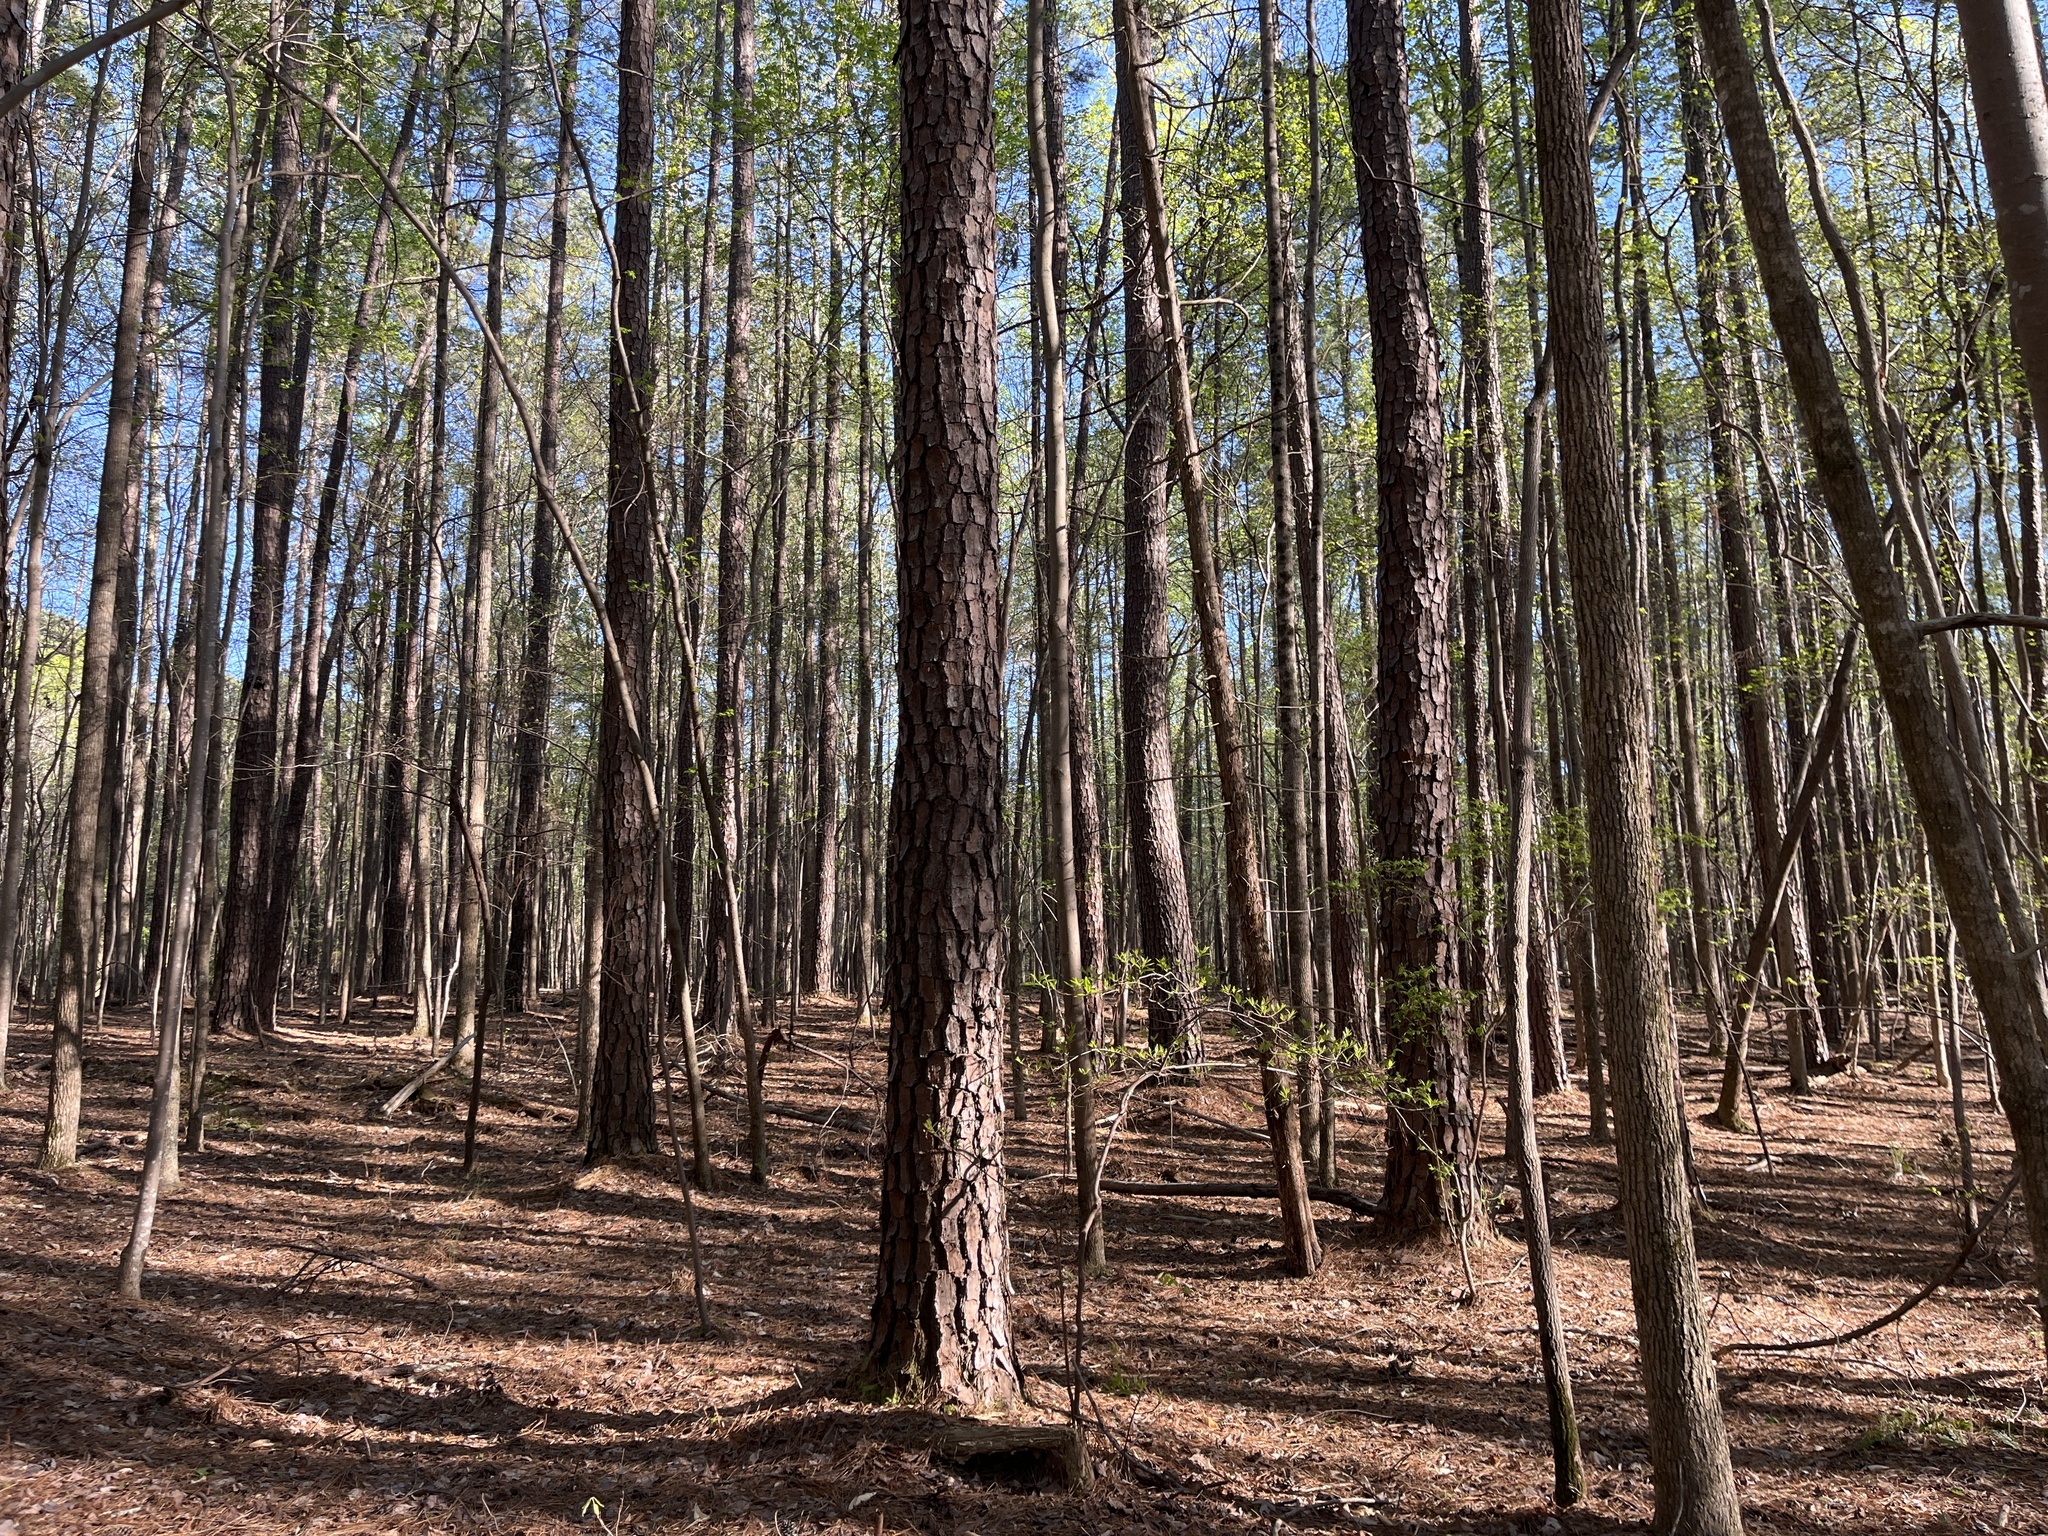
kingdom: Plantae
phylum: Tracheophyta
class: Pinopsida
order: Pinales
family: Pinaceae
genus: Pinus
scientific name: Pinus taeda
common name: Loblolly pine
